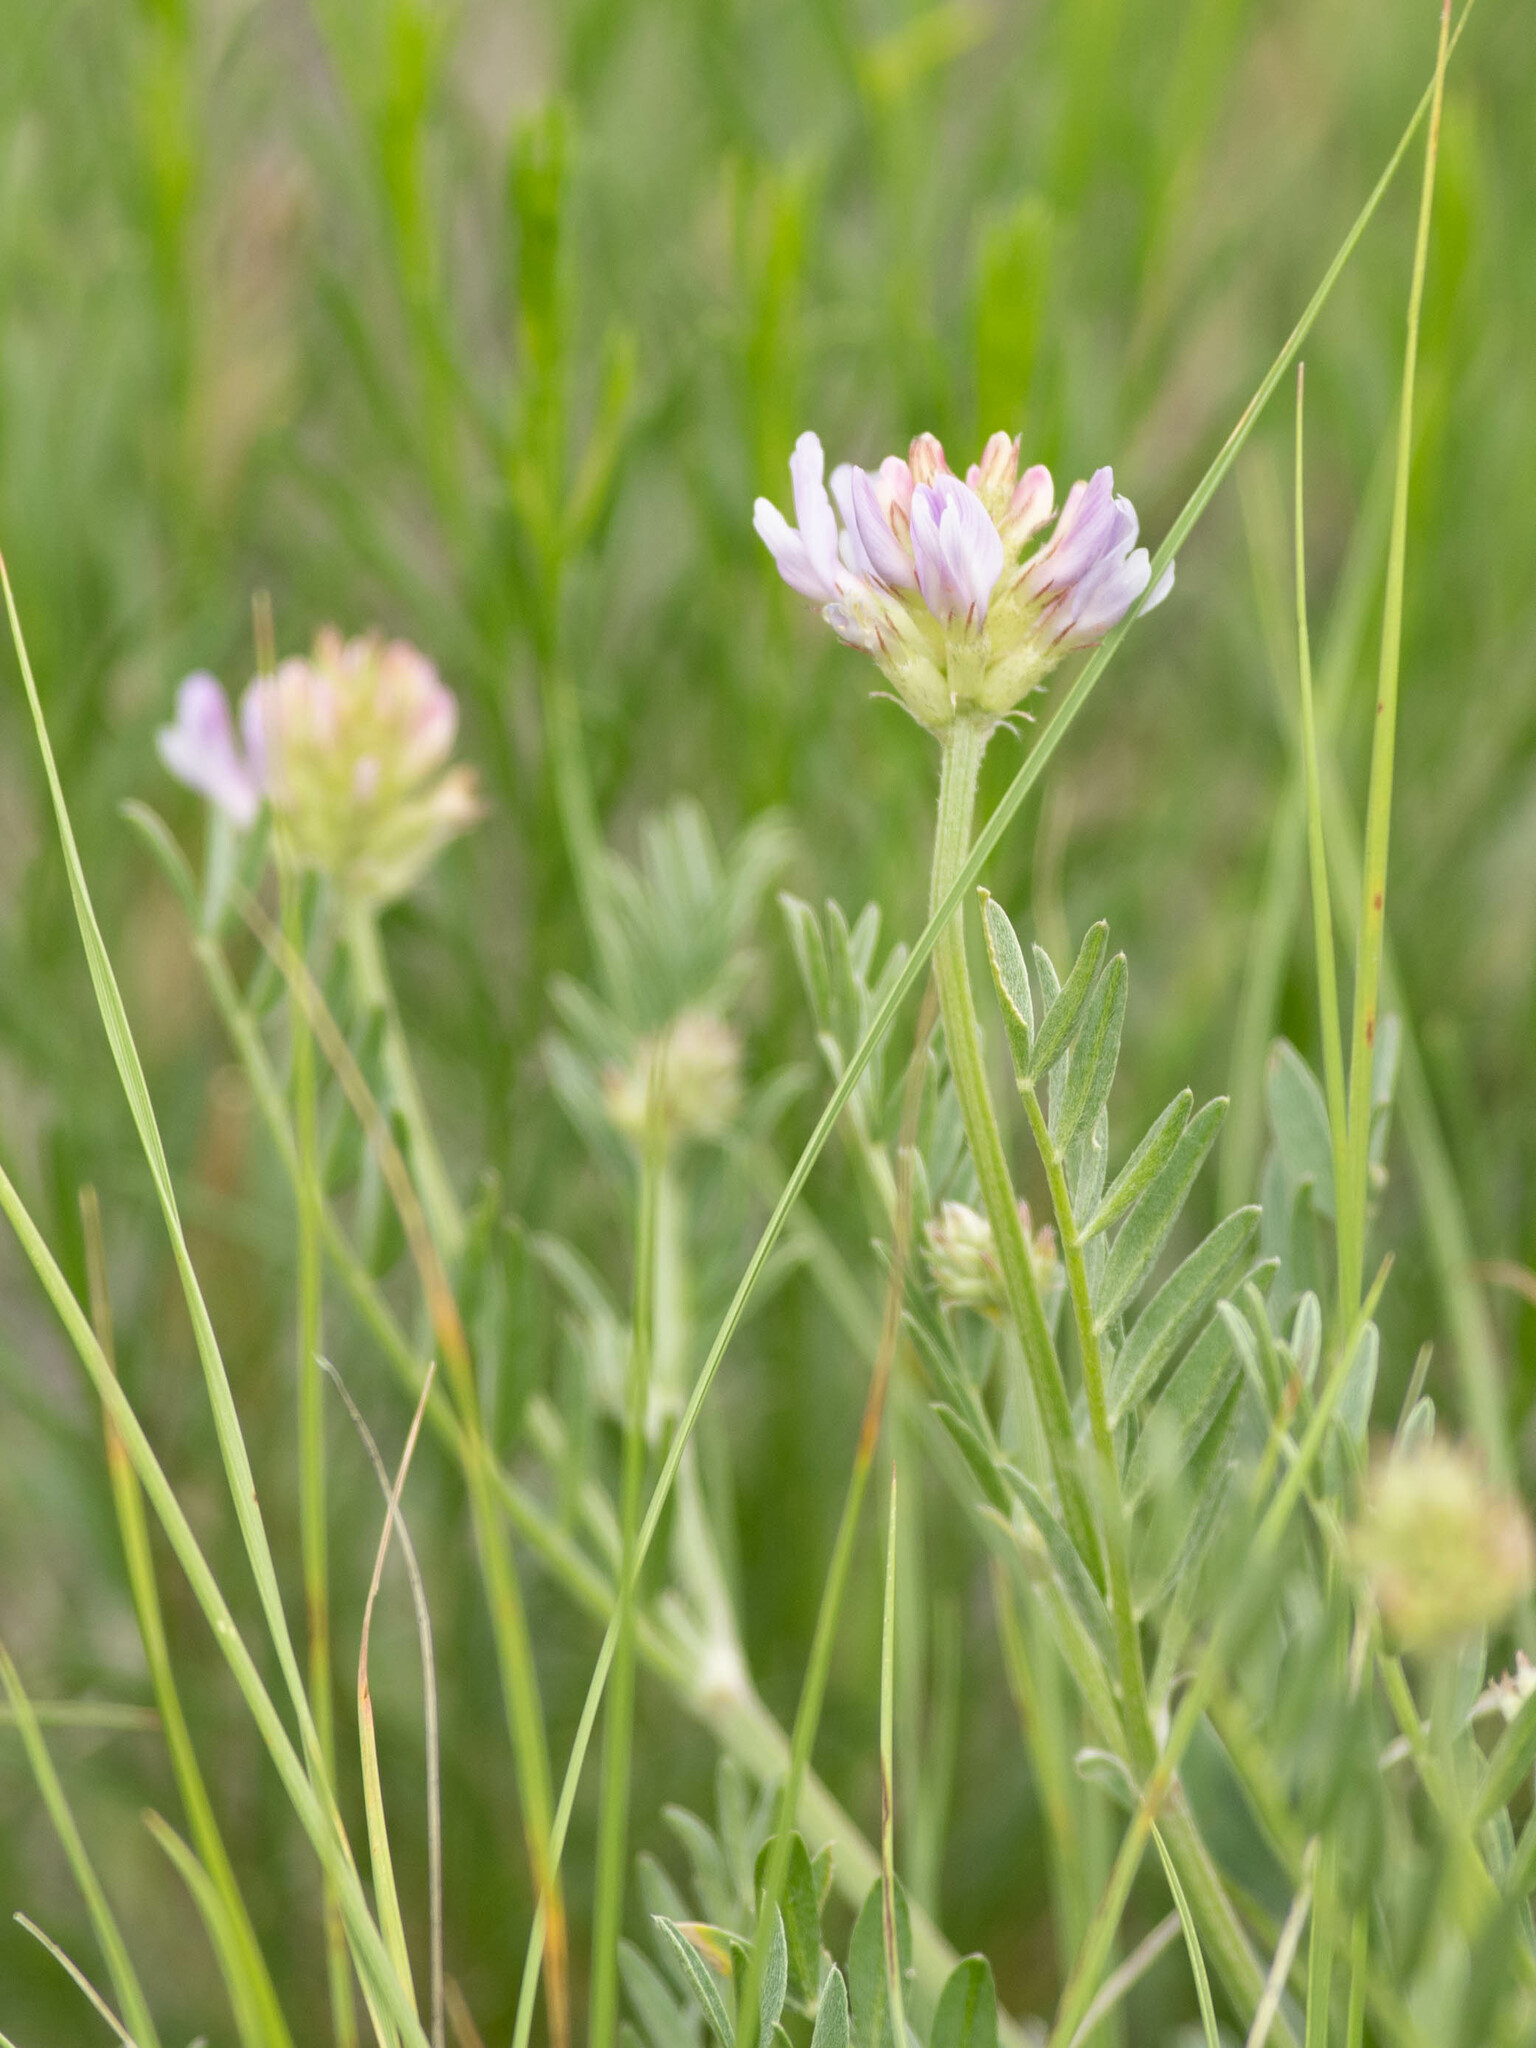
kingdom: Plantae
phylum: Tracheophyta
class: Magnoliopsida
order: Fabales
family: Fabaceae
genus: Astragalus
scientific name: Astragalus laxmannii
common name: Laxmann's milk-vetch
